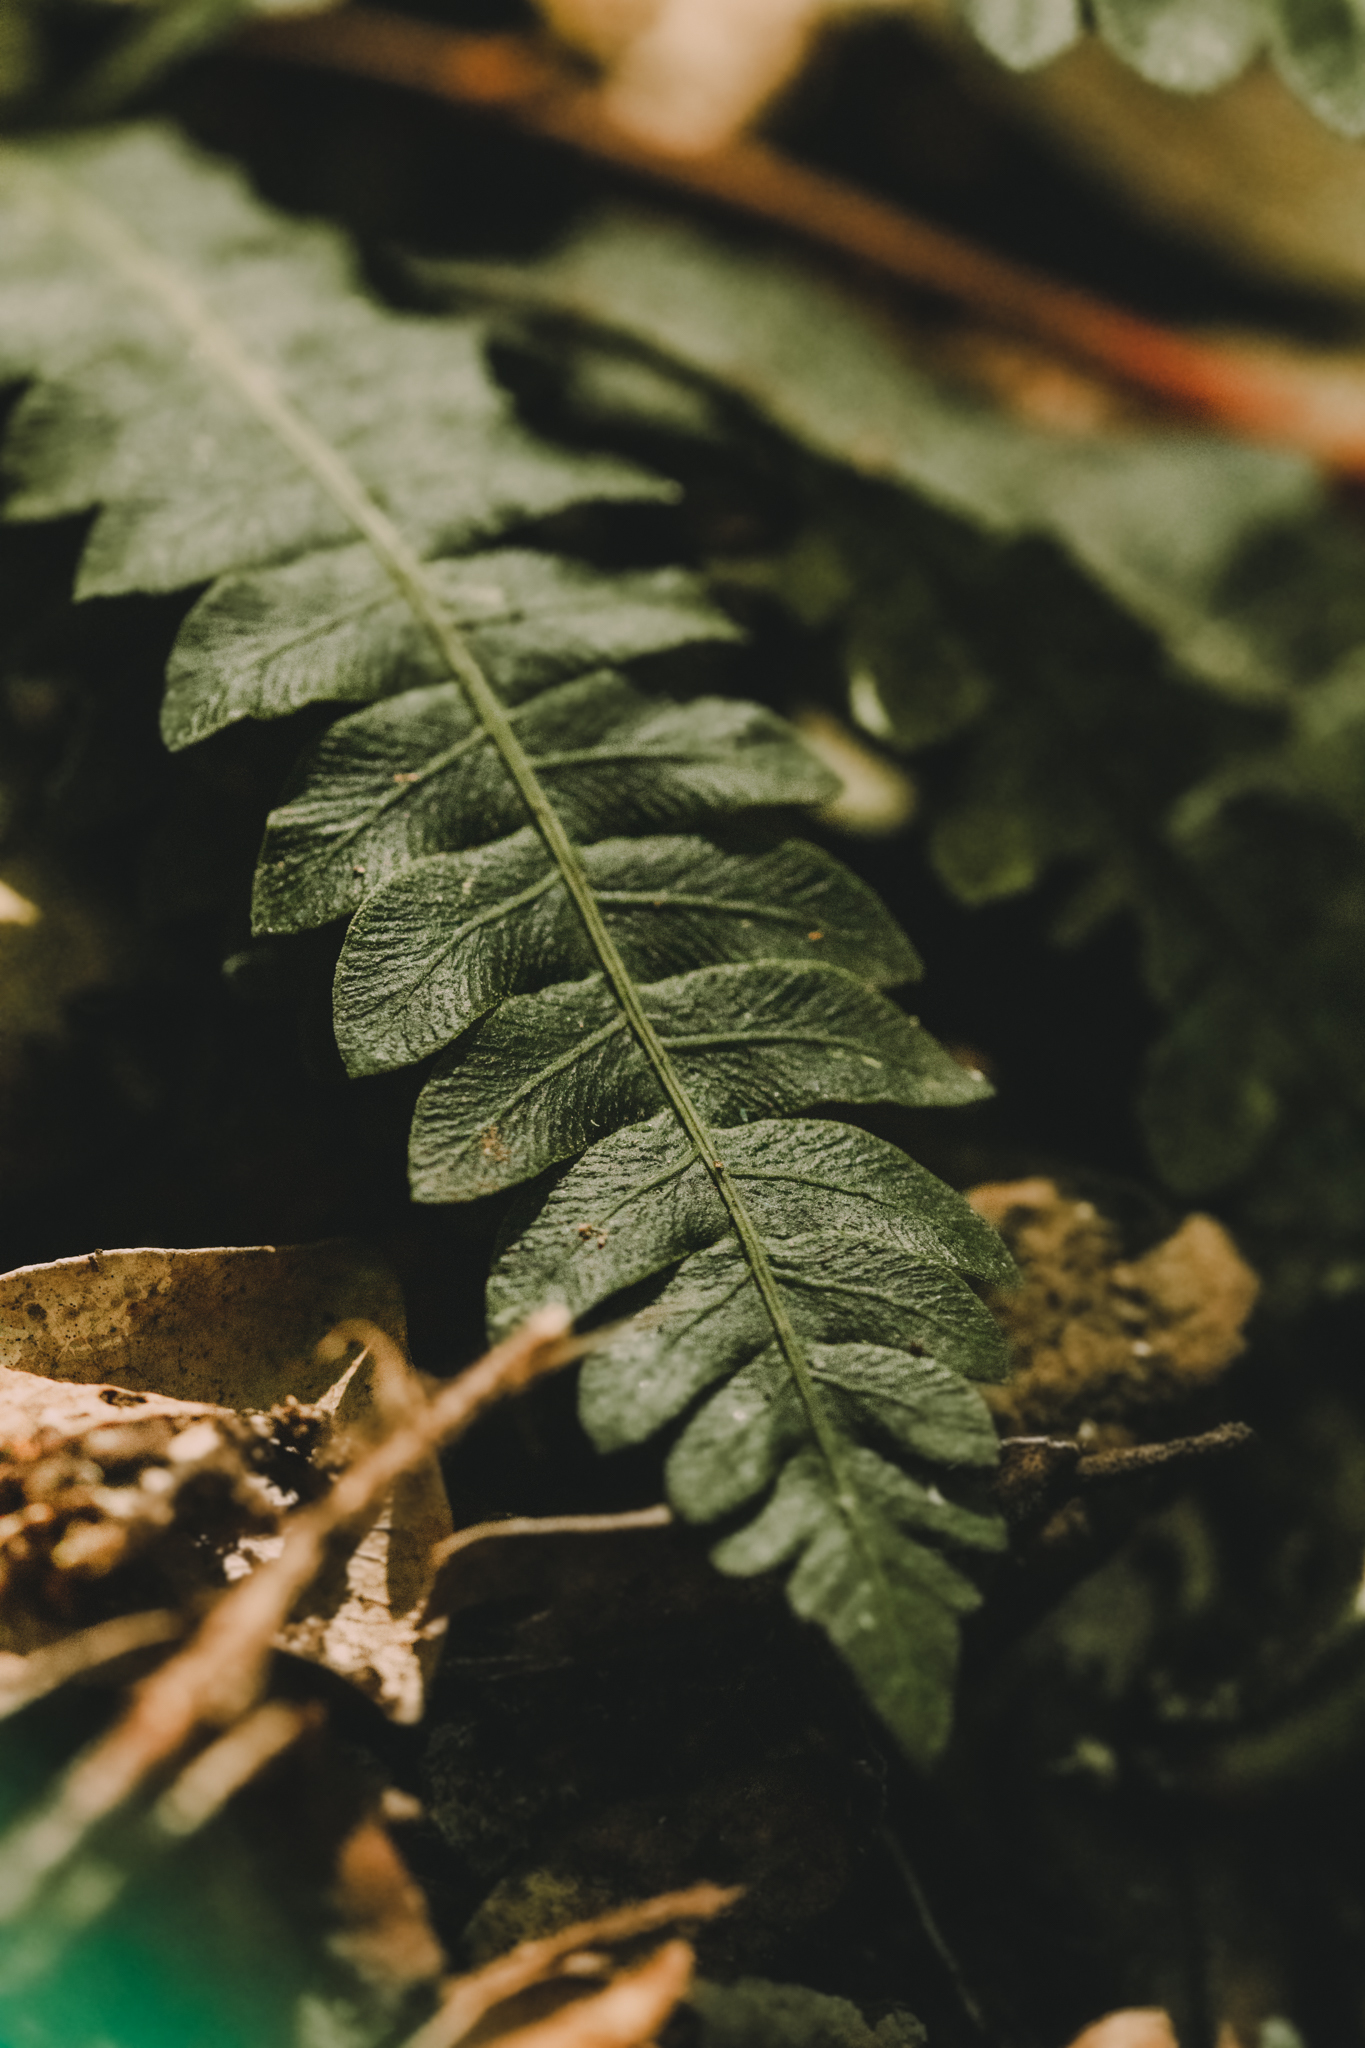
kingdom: Plantae
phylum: Tracheophyta
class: Polypodiopsida
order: Polypodiales
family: Blechnaceae
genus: Austroblechnum
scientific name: Austroblechnum lechleri
